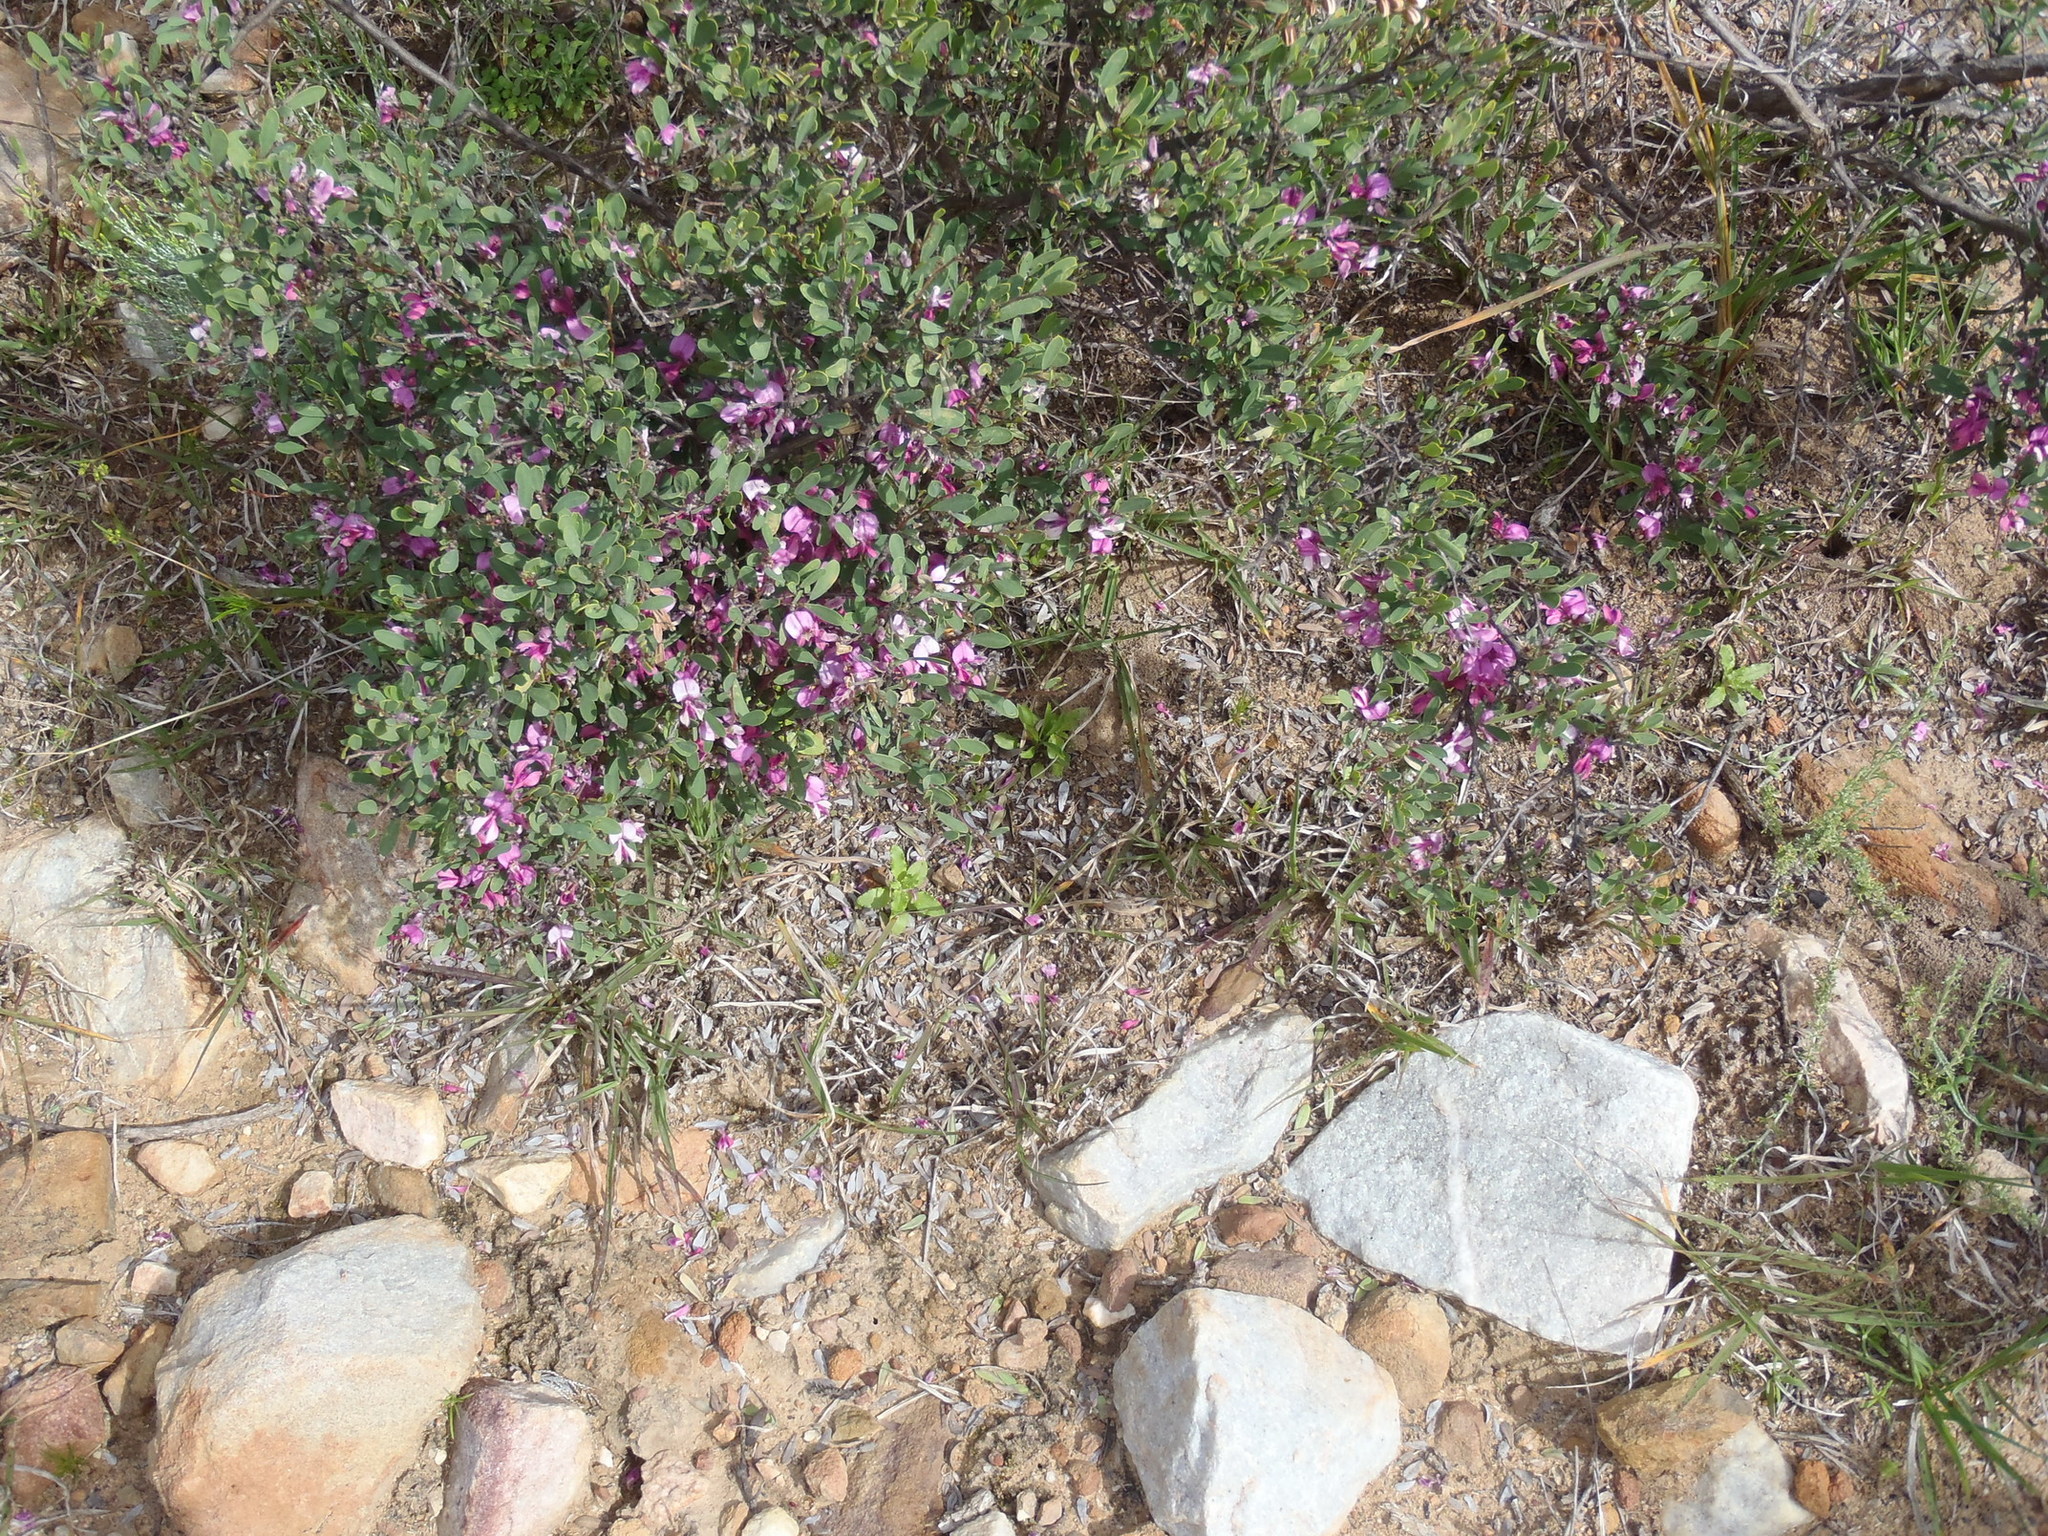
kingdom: Plantae
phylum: Tracheophyta
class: Magnoliopsida
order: Fabales
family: Fabaceae
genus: Indigofera
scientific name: Indigofera denudata
